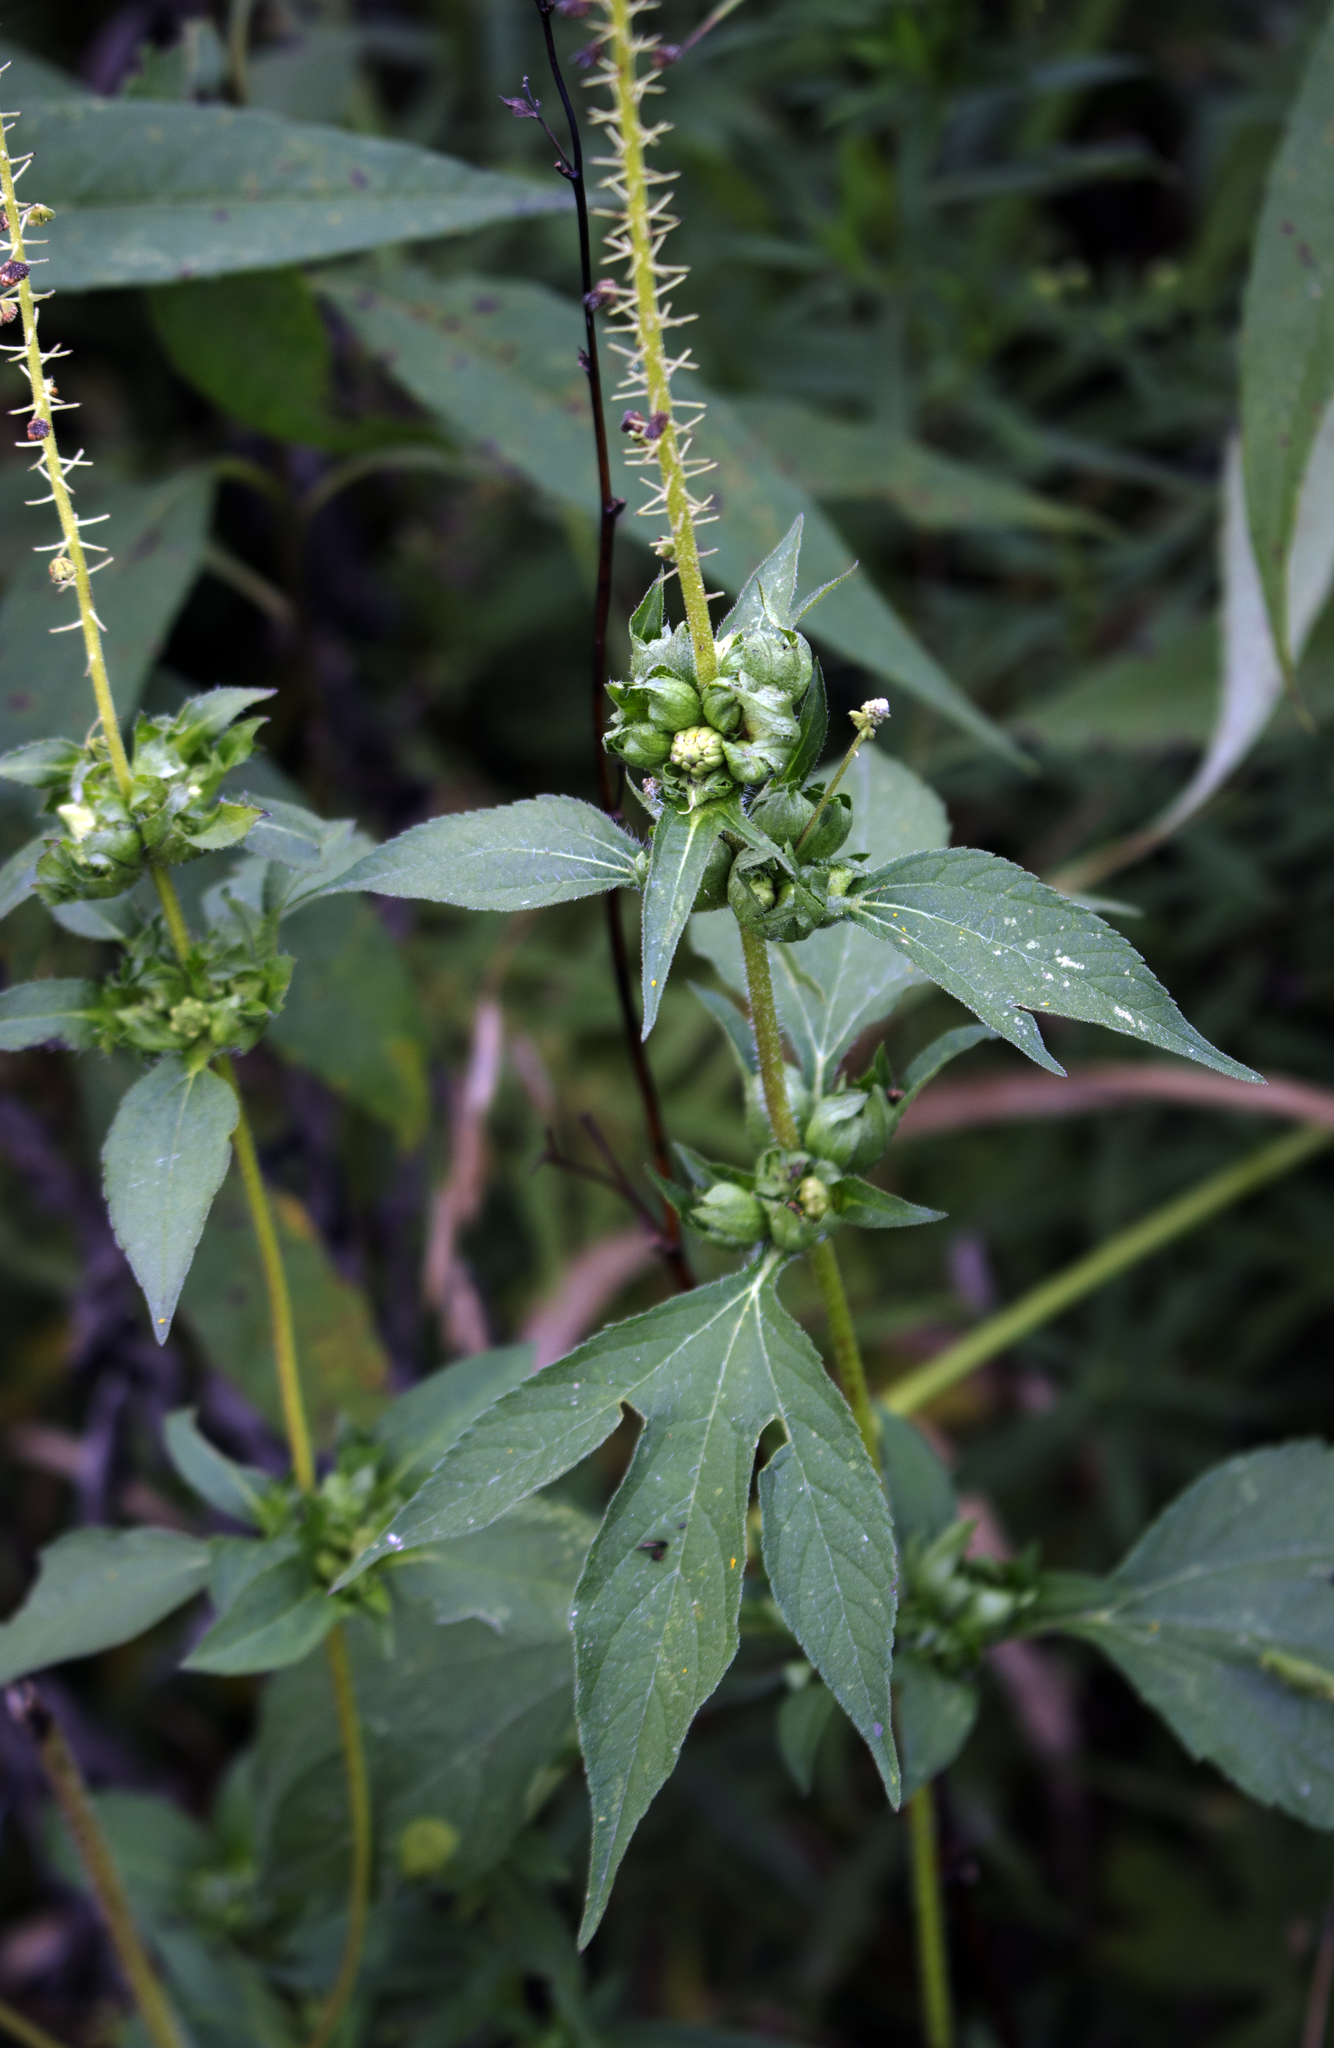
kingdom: Plantae
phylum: Tracheophyta
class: Magnoliopsida
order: Asterales
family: Asteraceae
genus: Ambrosia
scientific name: Ambrosia trifida
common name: Giant ragweed
